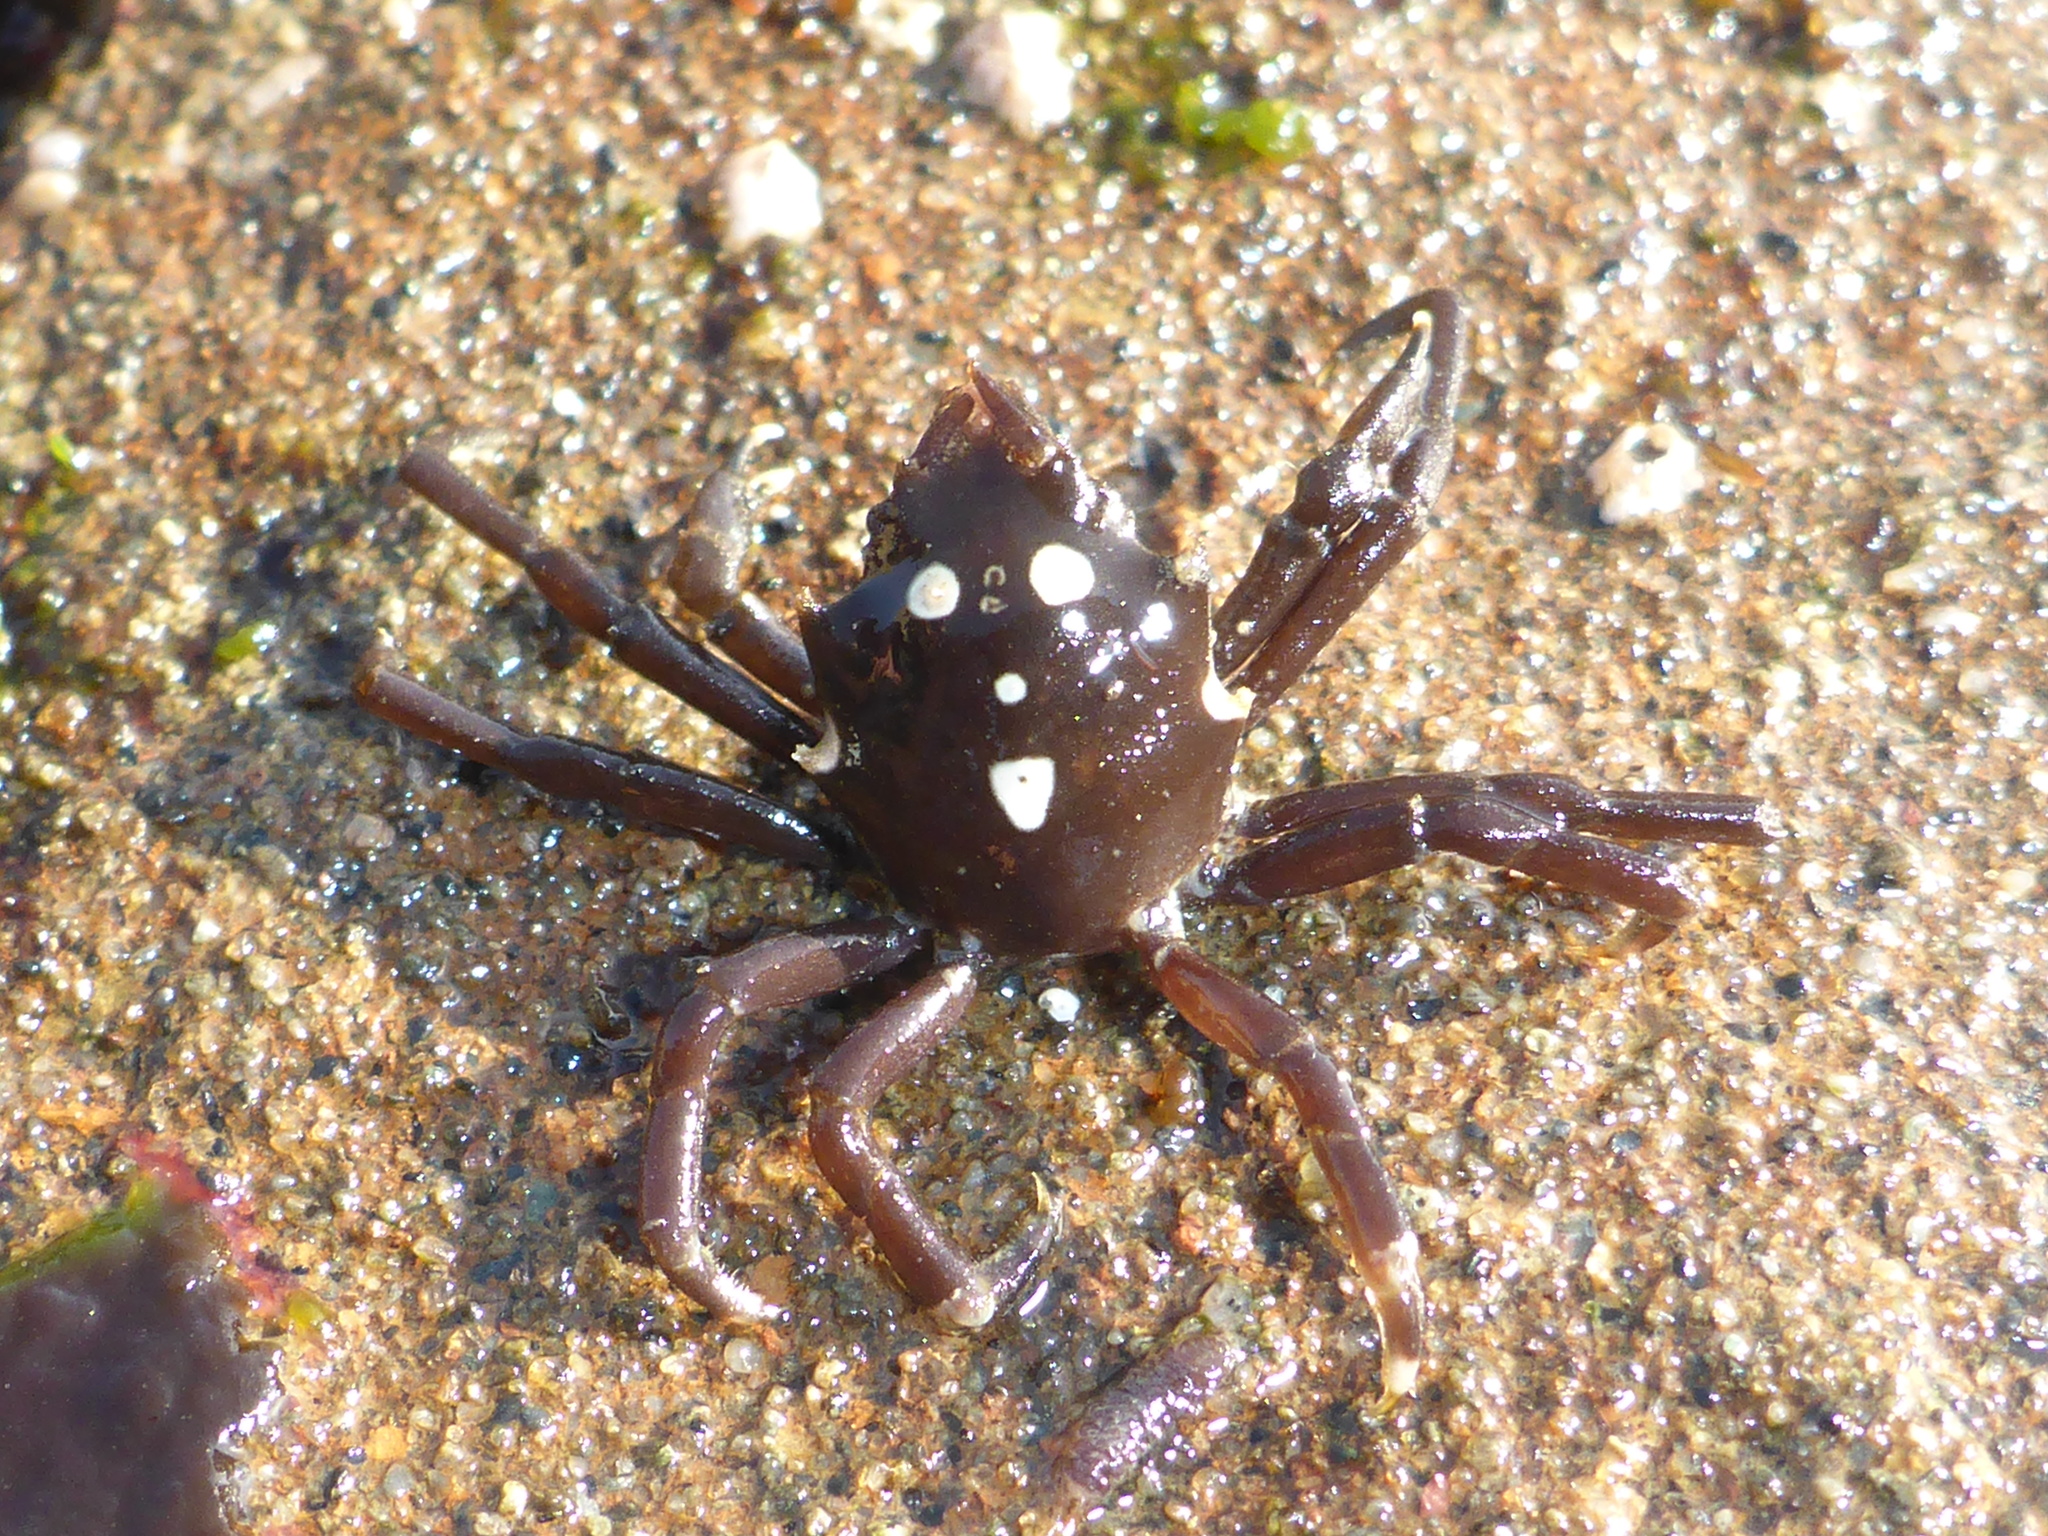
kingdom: Animalia
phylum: Arthropoda
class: Malacostraca
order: Decapoda
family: Epialtidae
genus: Pugettia
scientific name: Pugettia producta
